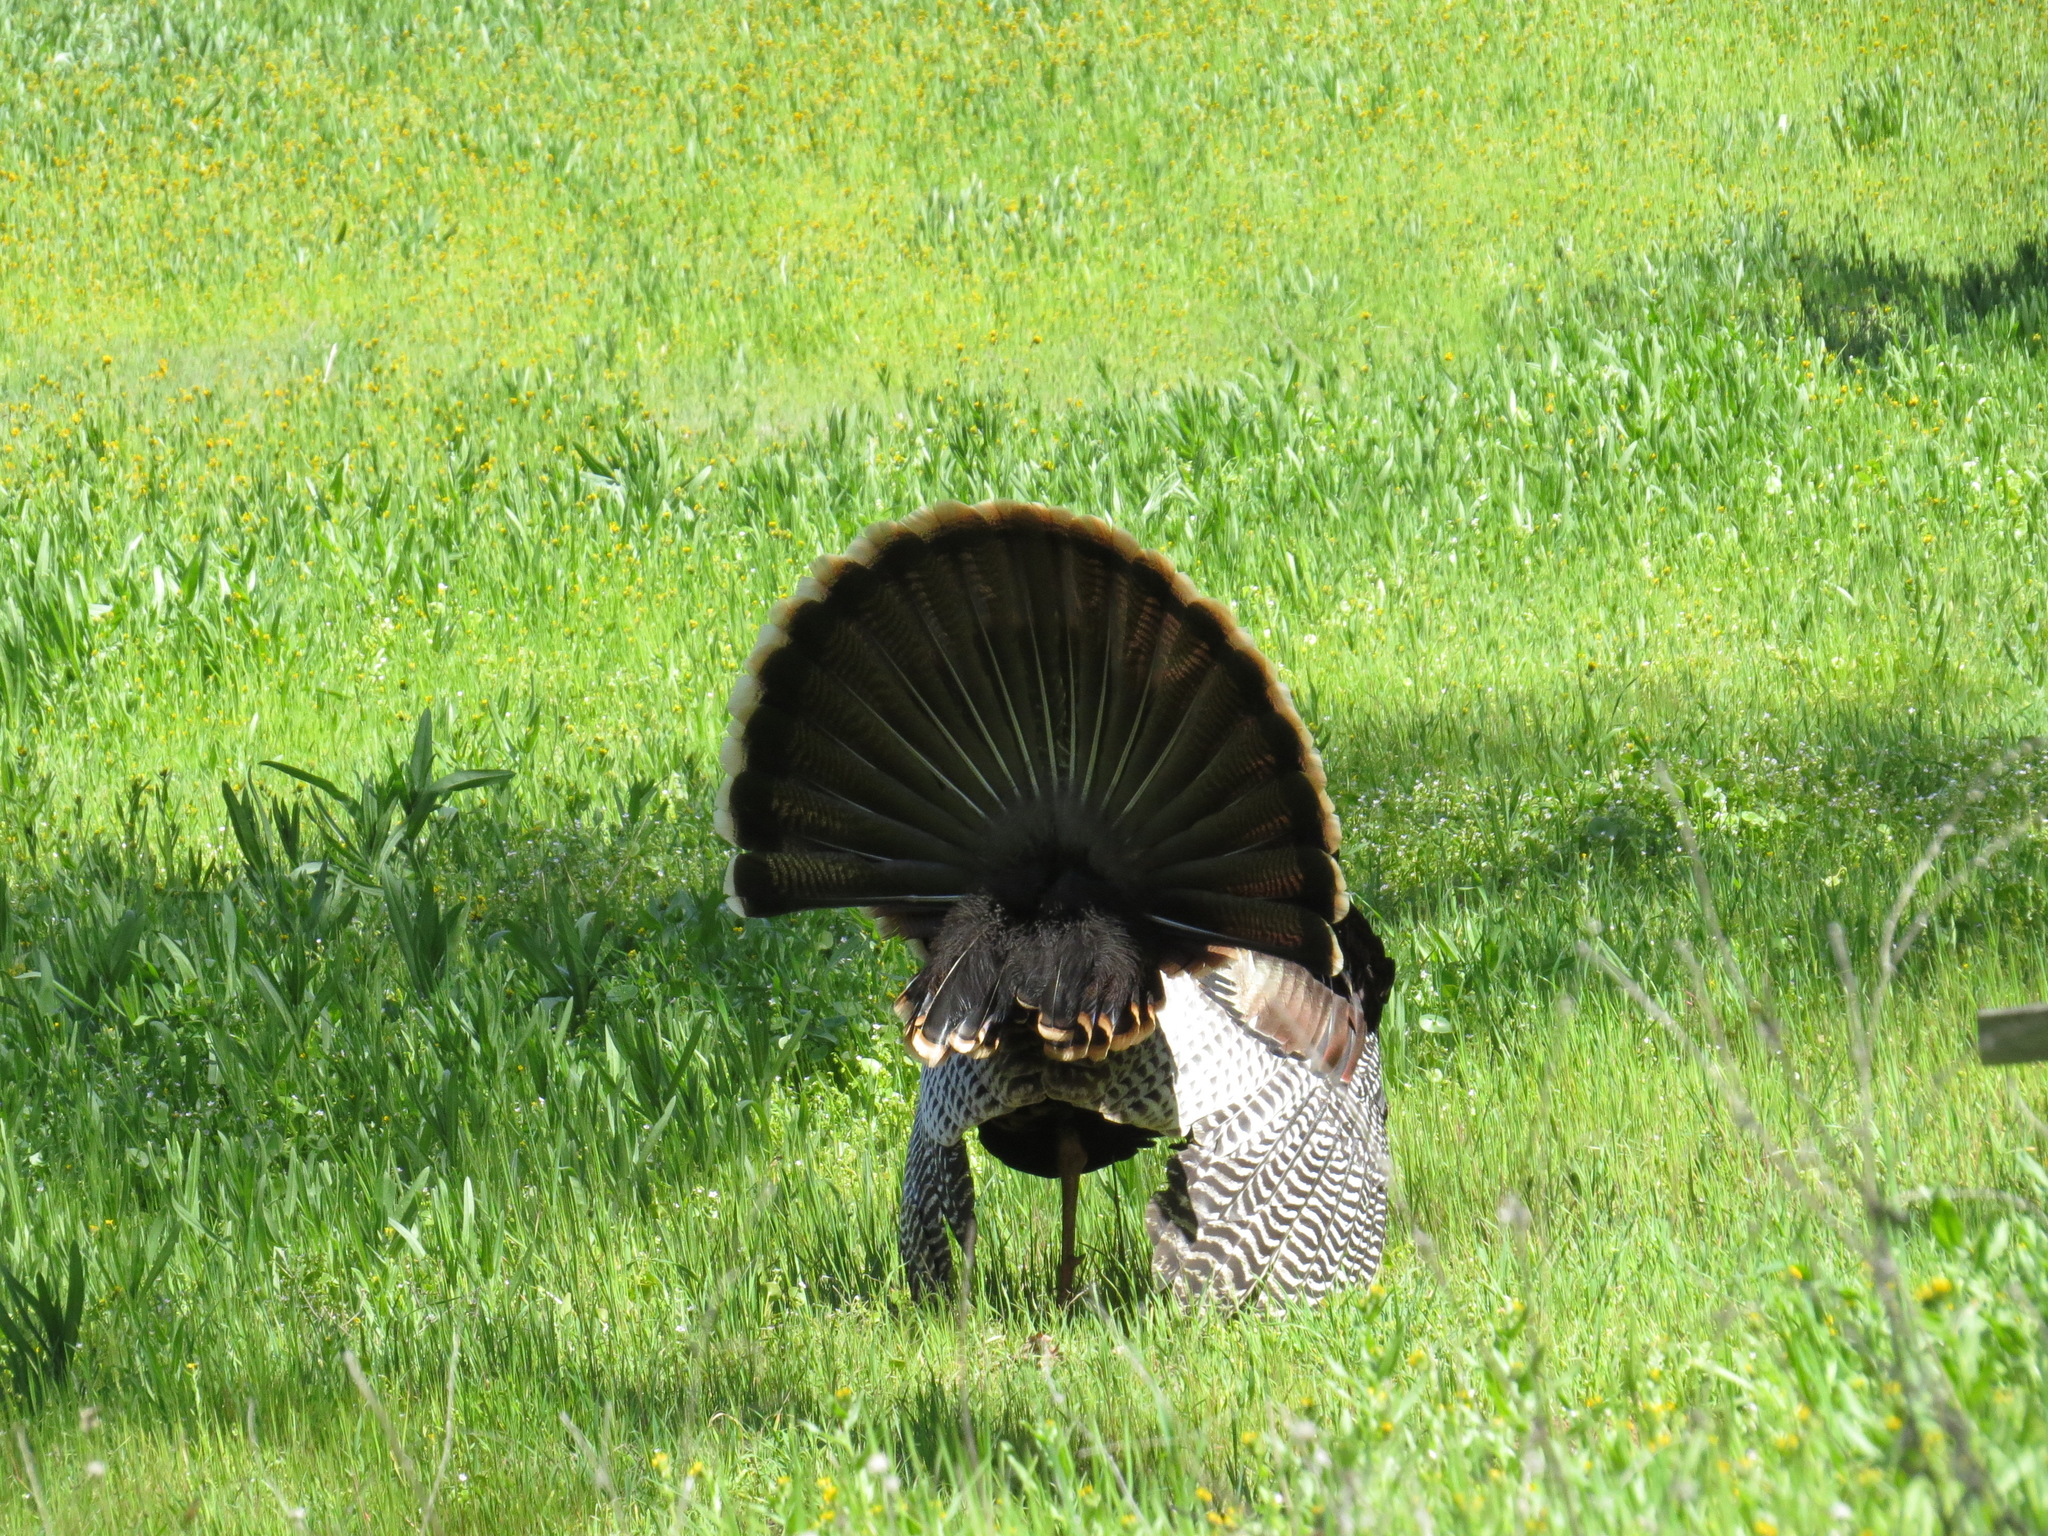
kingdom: Animalia
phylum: Chordata
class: Aves
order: Galliformes
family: Phasianidae
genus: Meleagris
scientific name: Meleagris gallopavo
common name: Wild turkey
